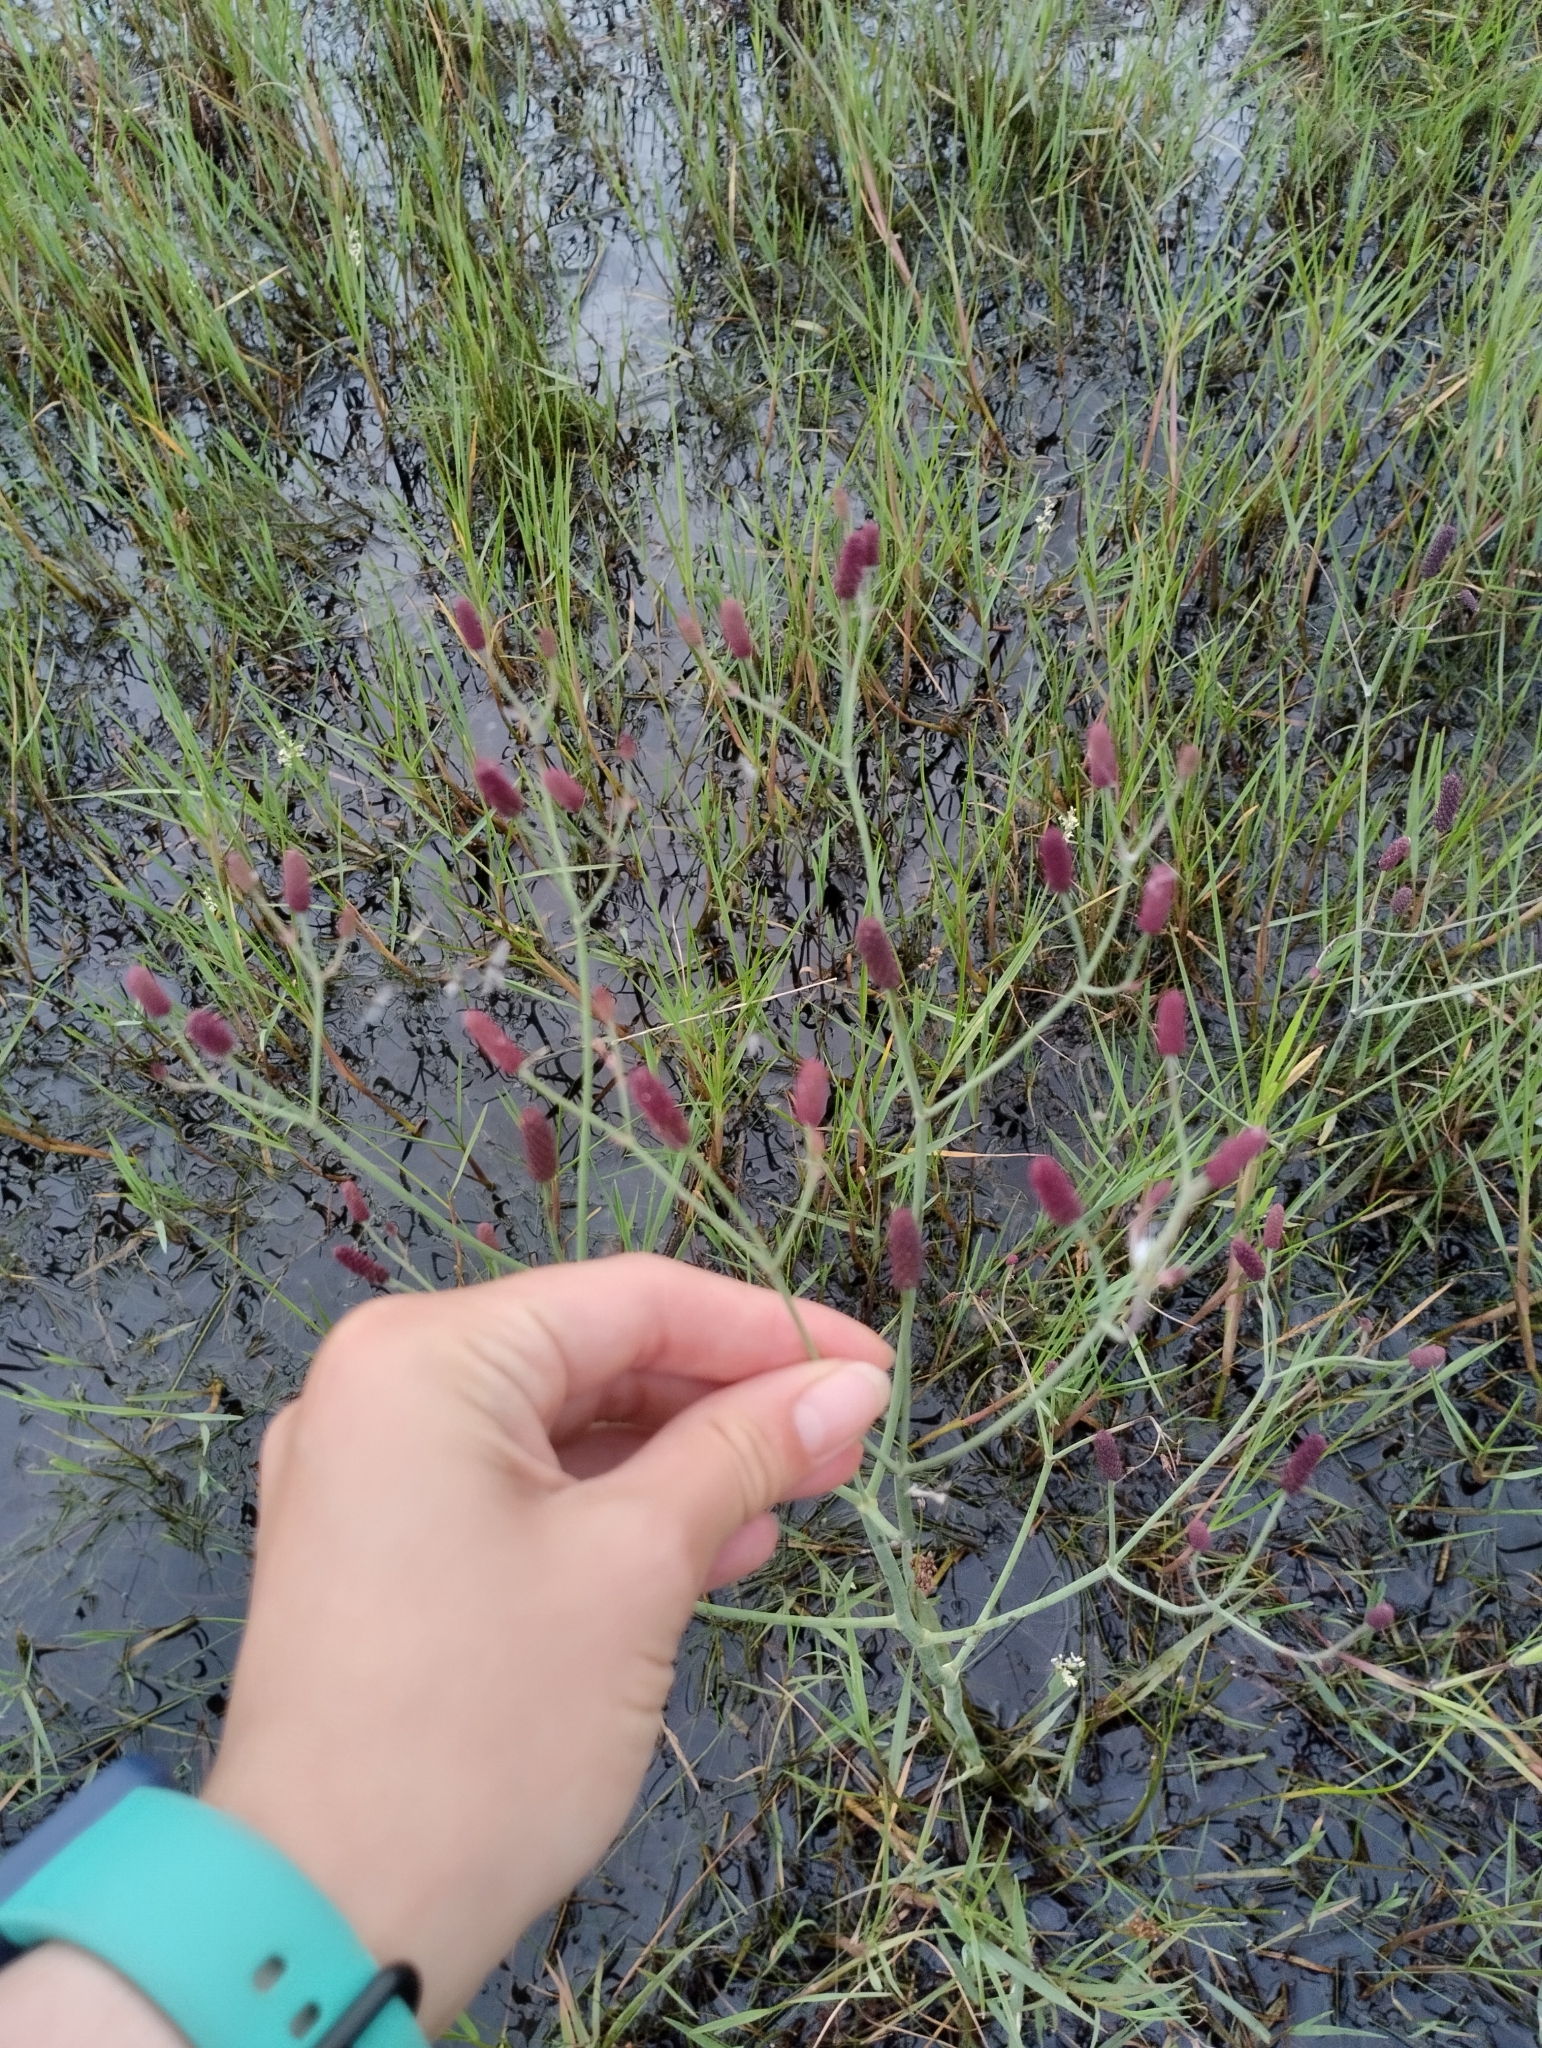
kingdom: Plantae
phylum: Tracheophyta
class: Magnoliopsida
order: Apiales
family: Apiaceae
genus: Eryngium
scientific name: Eryngium ebracteatum
